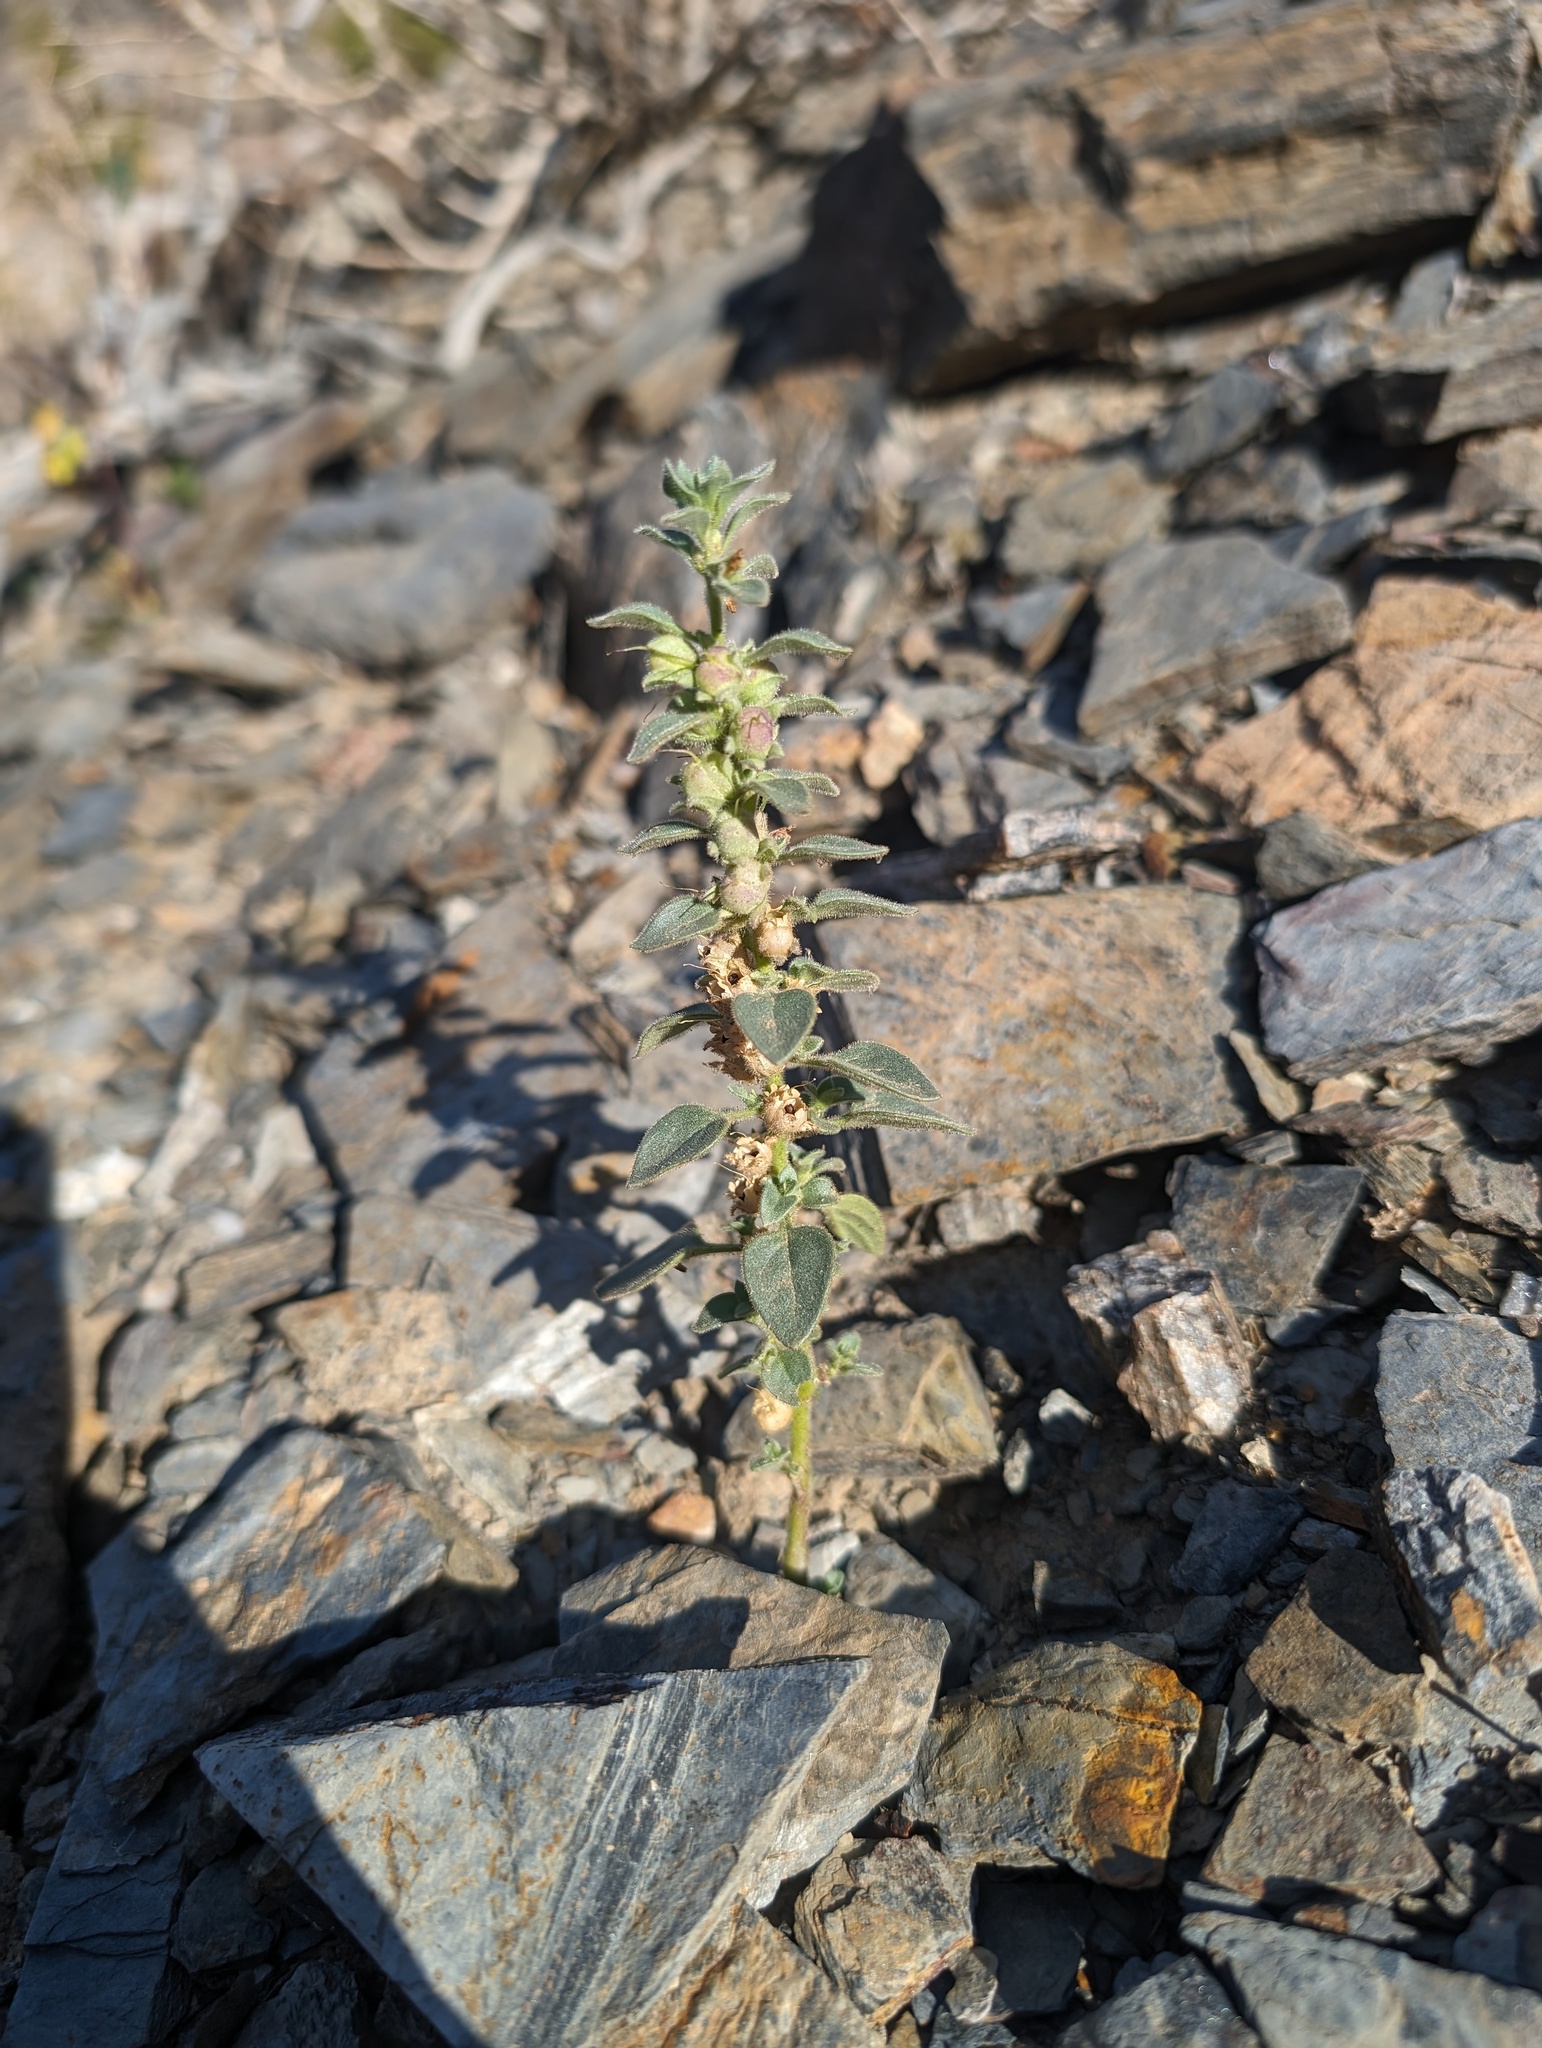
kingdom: Plantae
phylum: Tracheophyta
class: Magnoliopsida
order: Lamiales
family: Plantaginaceae
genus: Pseudorontium
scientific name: Pseudorontium cyathiferum
